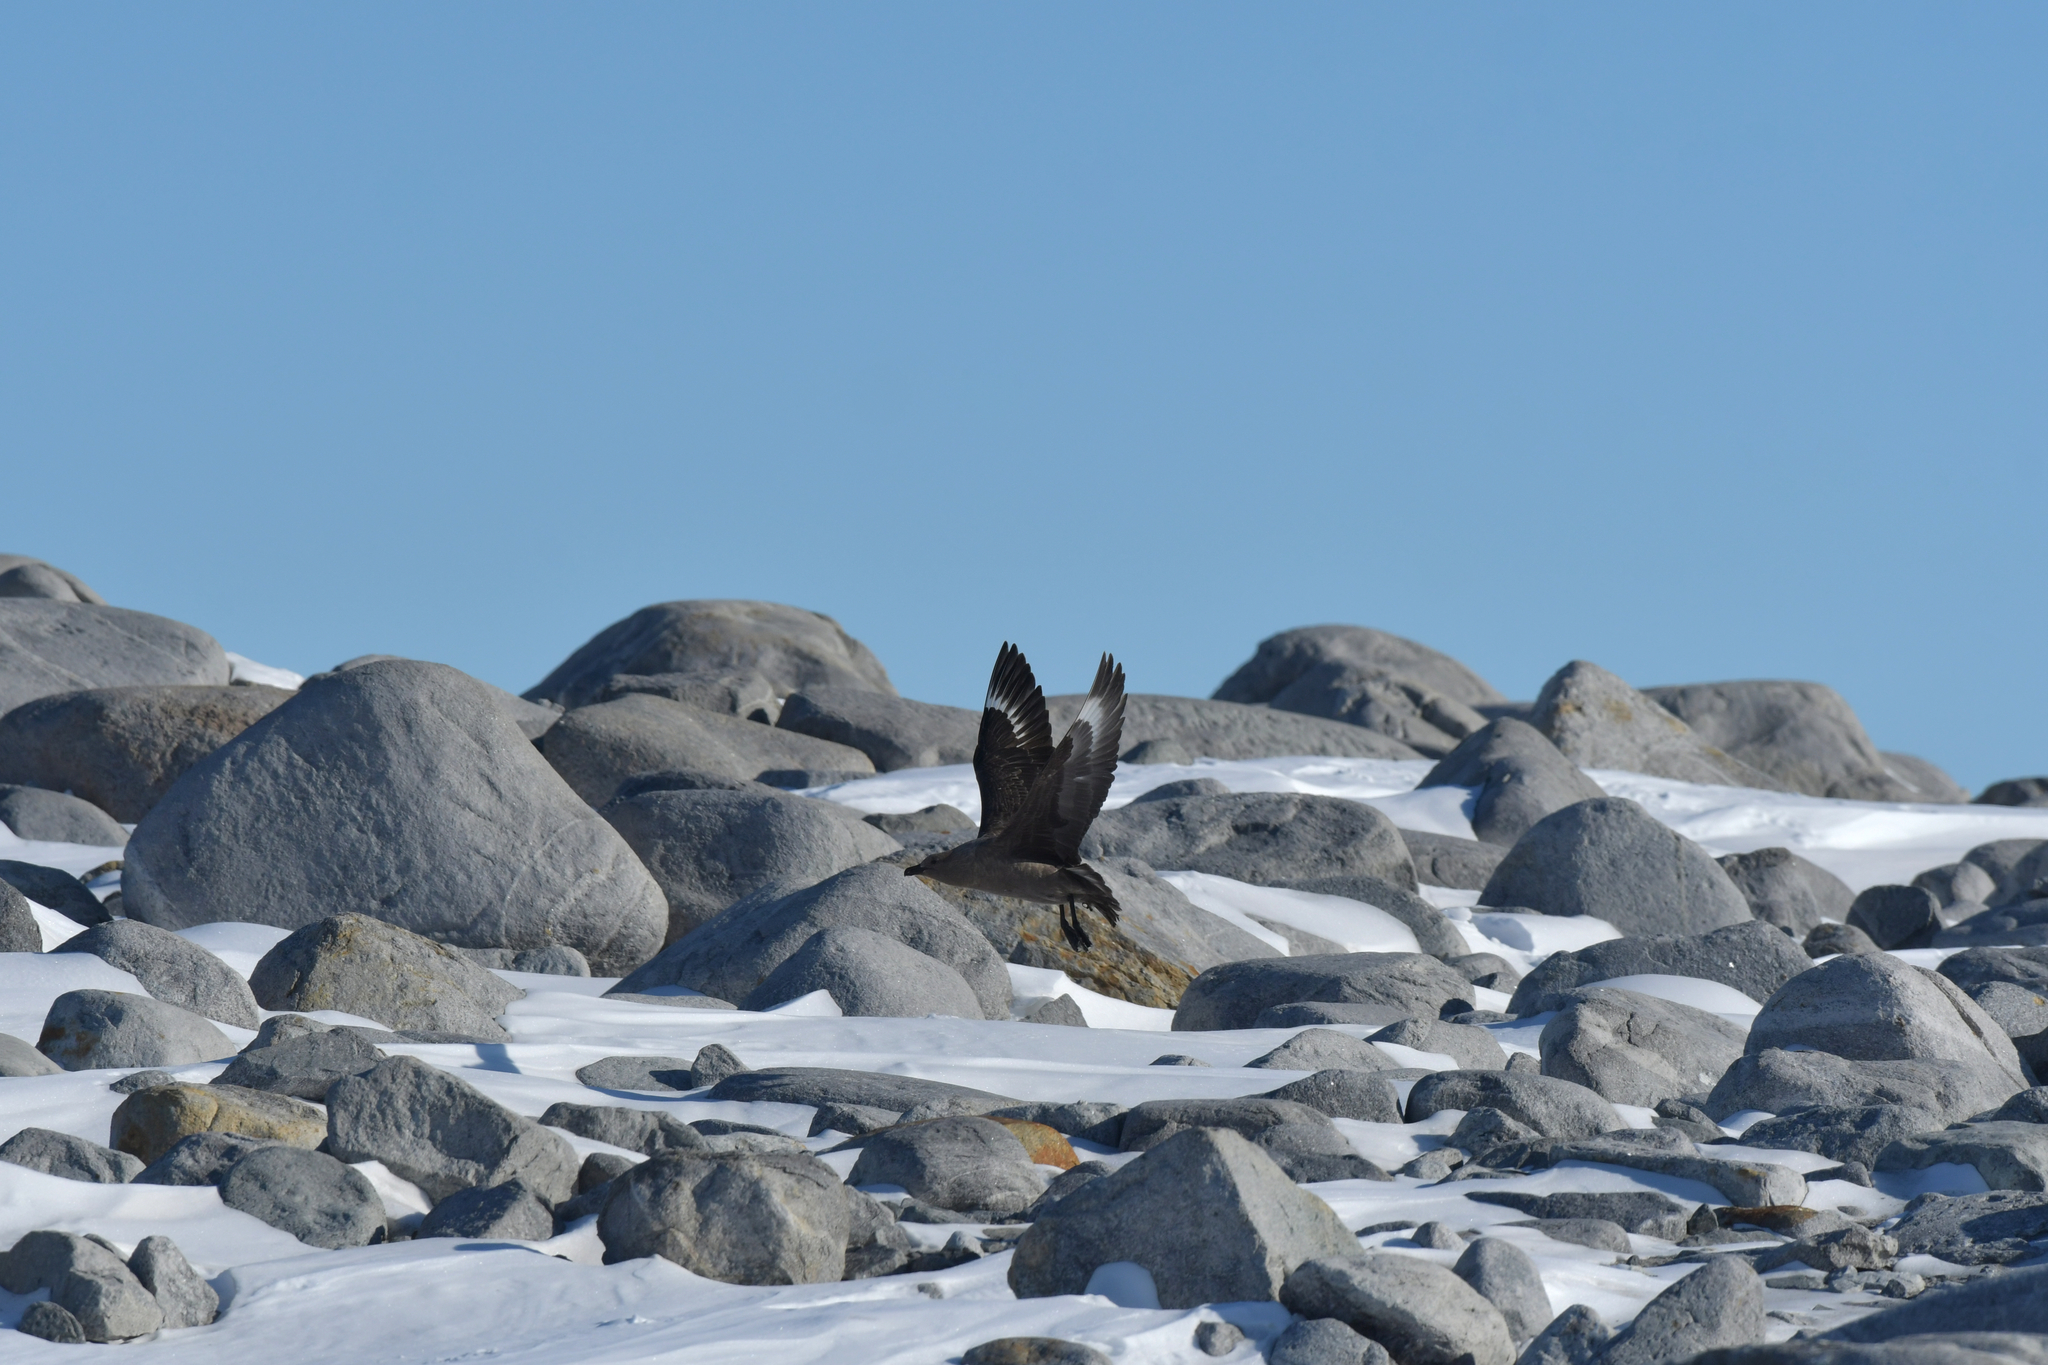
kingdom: Animalia
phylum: Chordata
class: Aves
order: Charadriiformes
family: Stercorariidae
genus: Stercorarius
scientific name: Stercorarius maccormicki
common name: South polar skua
